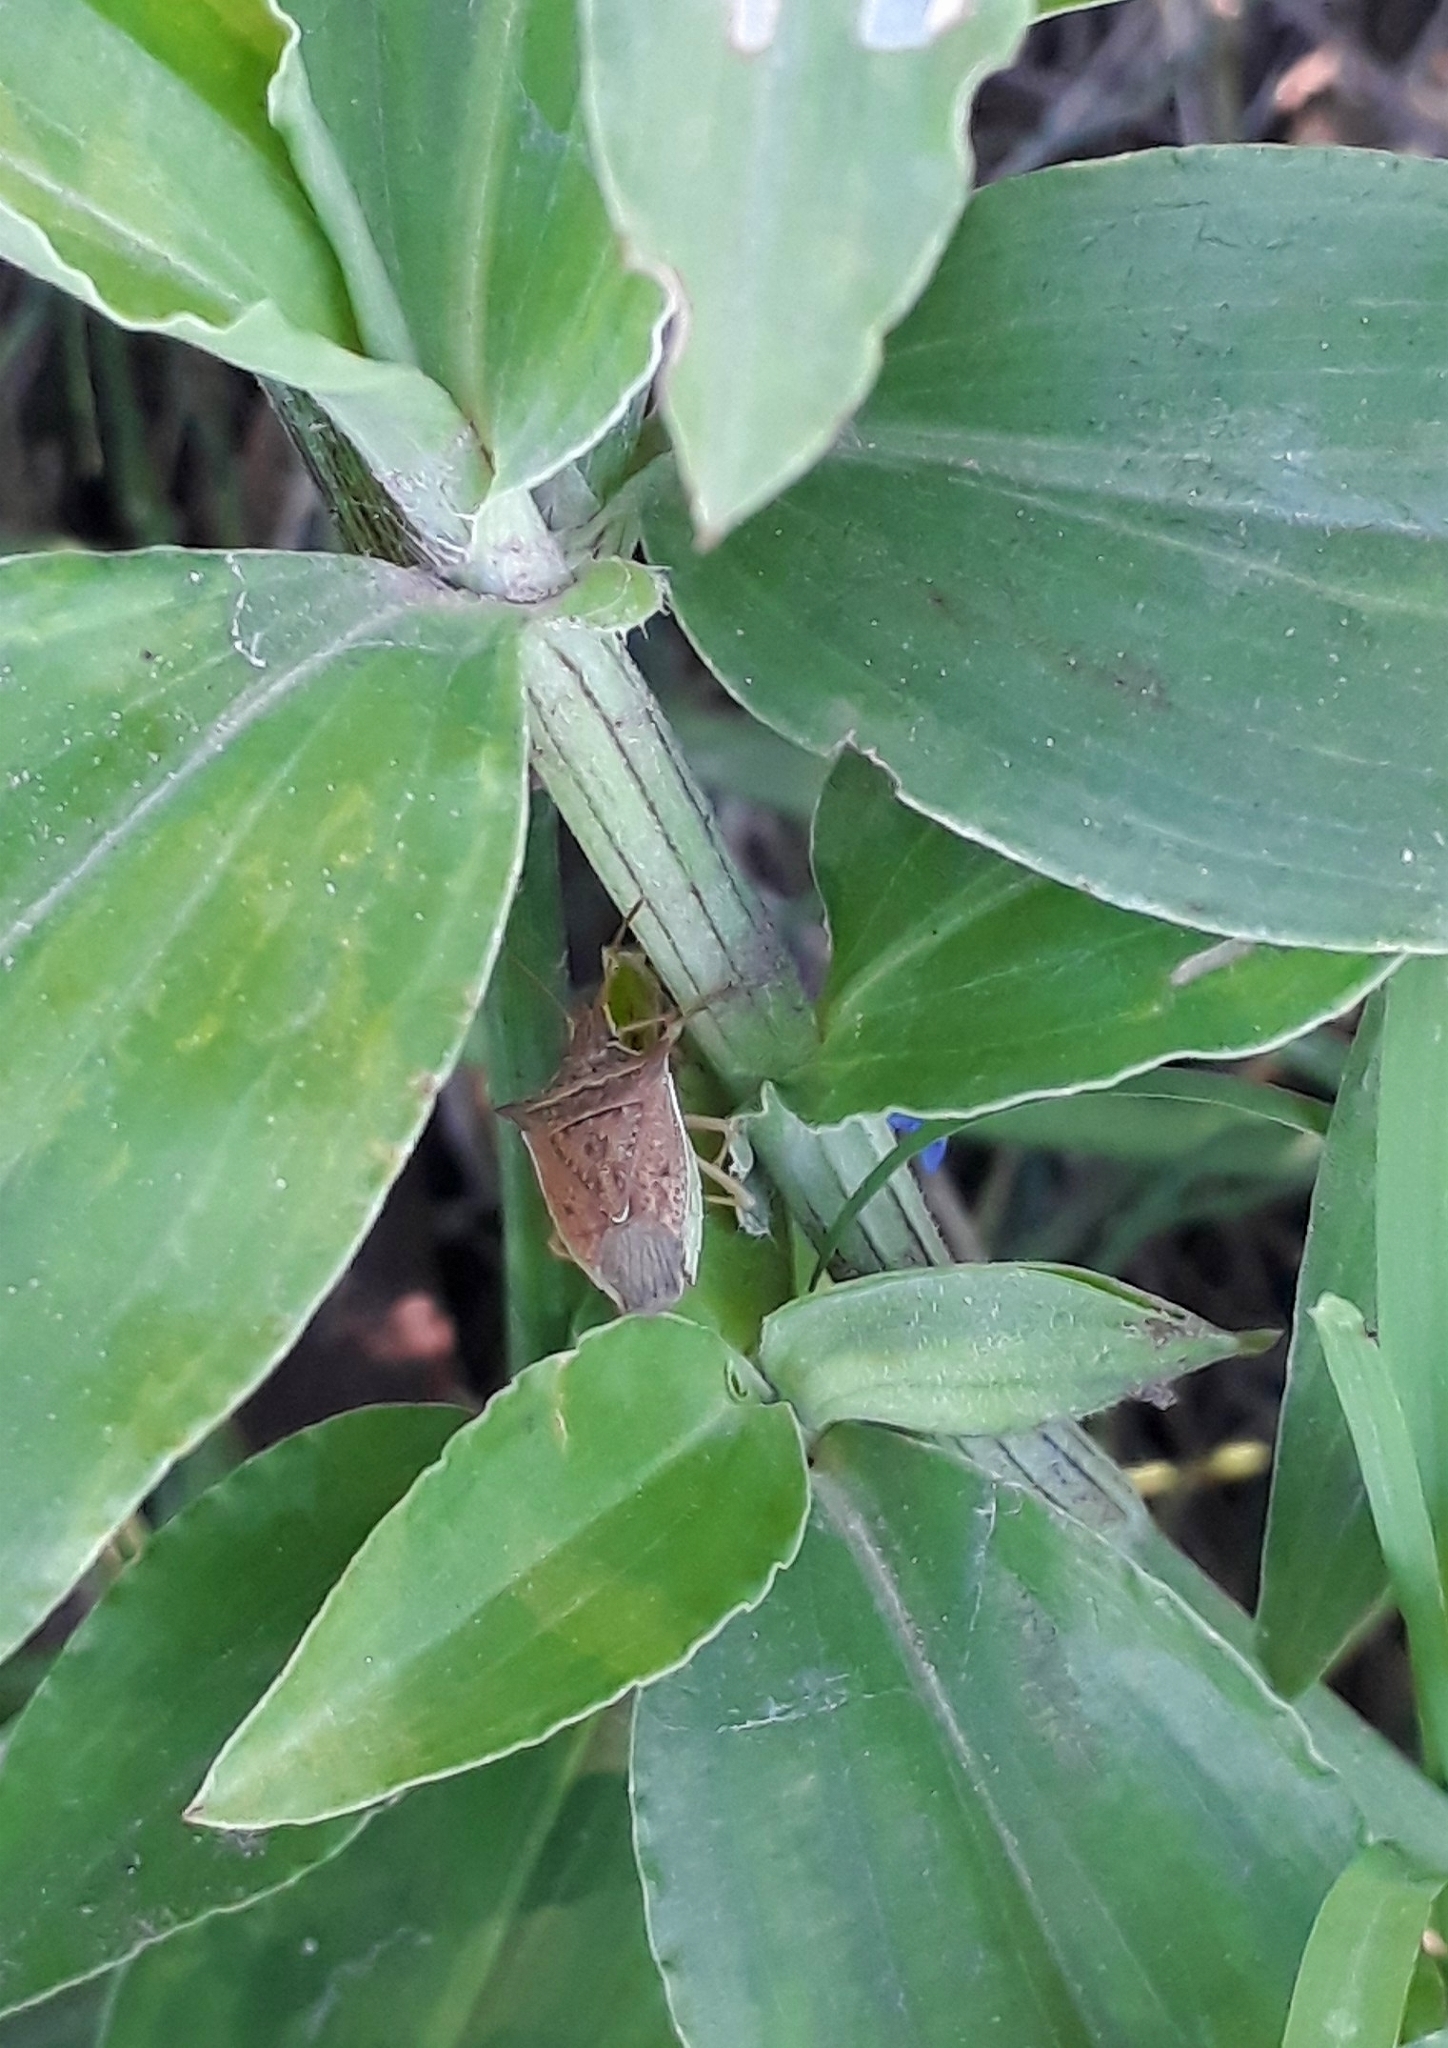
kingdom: Animalia
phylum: Arthropoda
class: Insecta
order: Hemiptera
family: Pentatomidae
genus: Diceraeus
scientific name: Diceraeus furcatus
